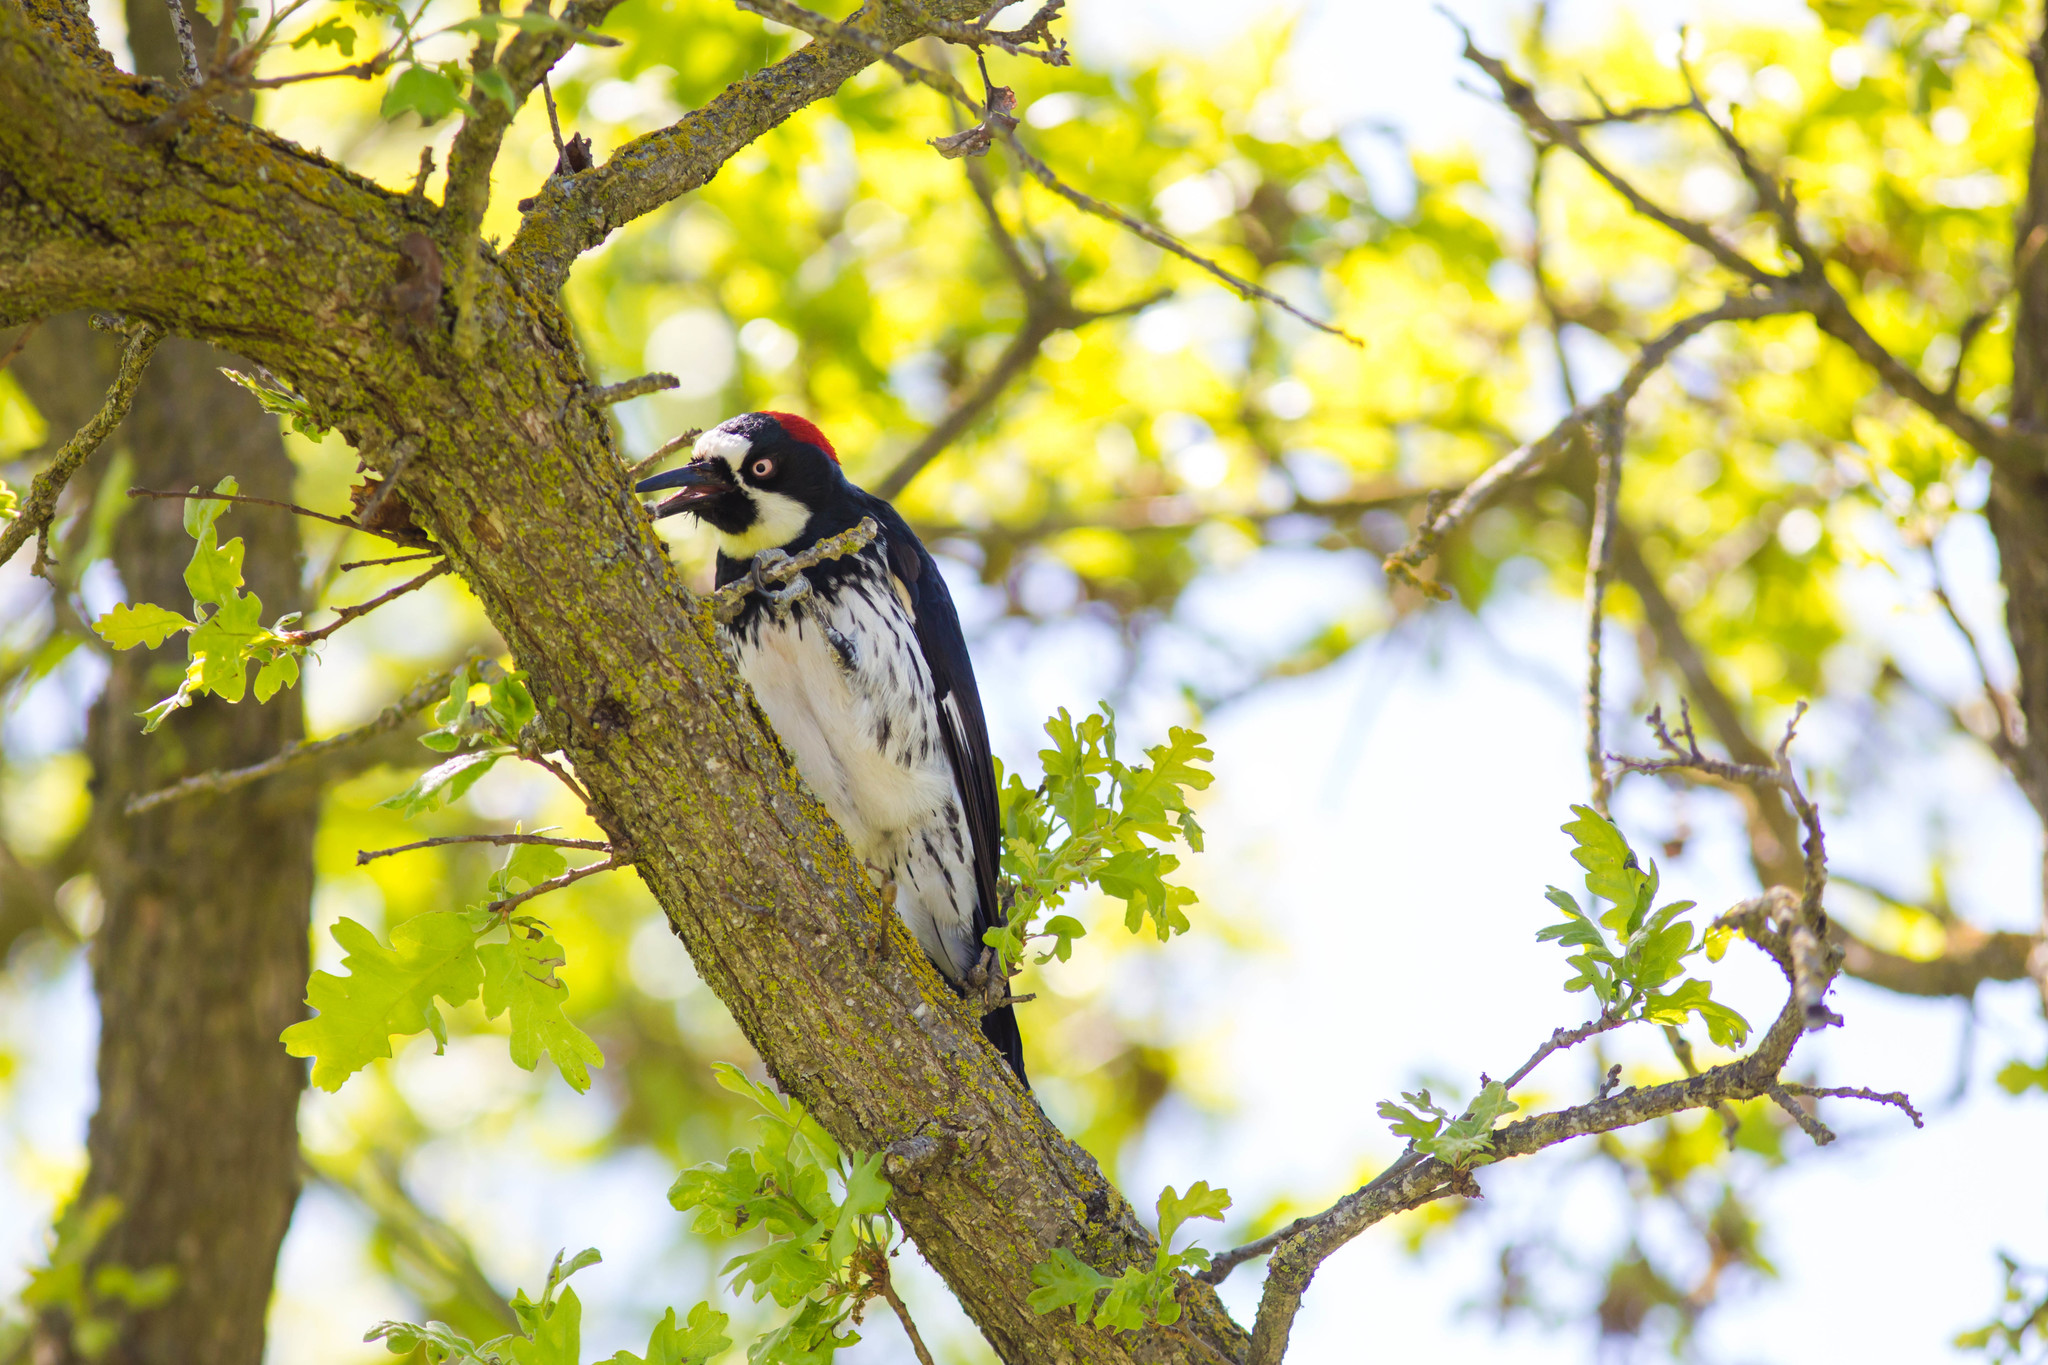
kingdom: Animalia
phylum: Chordata
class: Aves
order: Piciformes
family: Picidae
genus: Melanerpes
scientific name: Melanerpes formicivorus
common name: Acorn woodpecker
